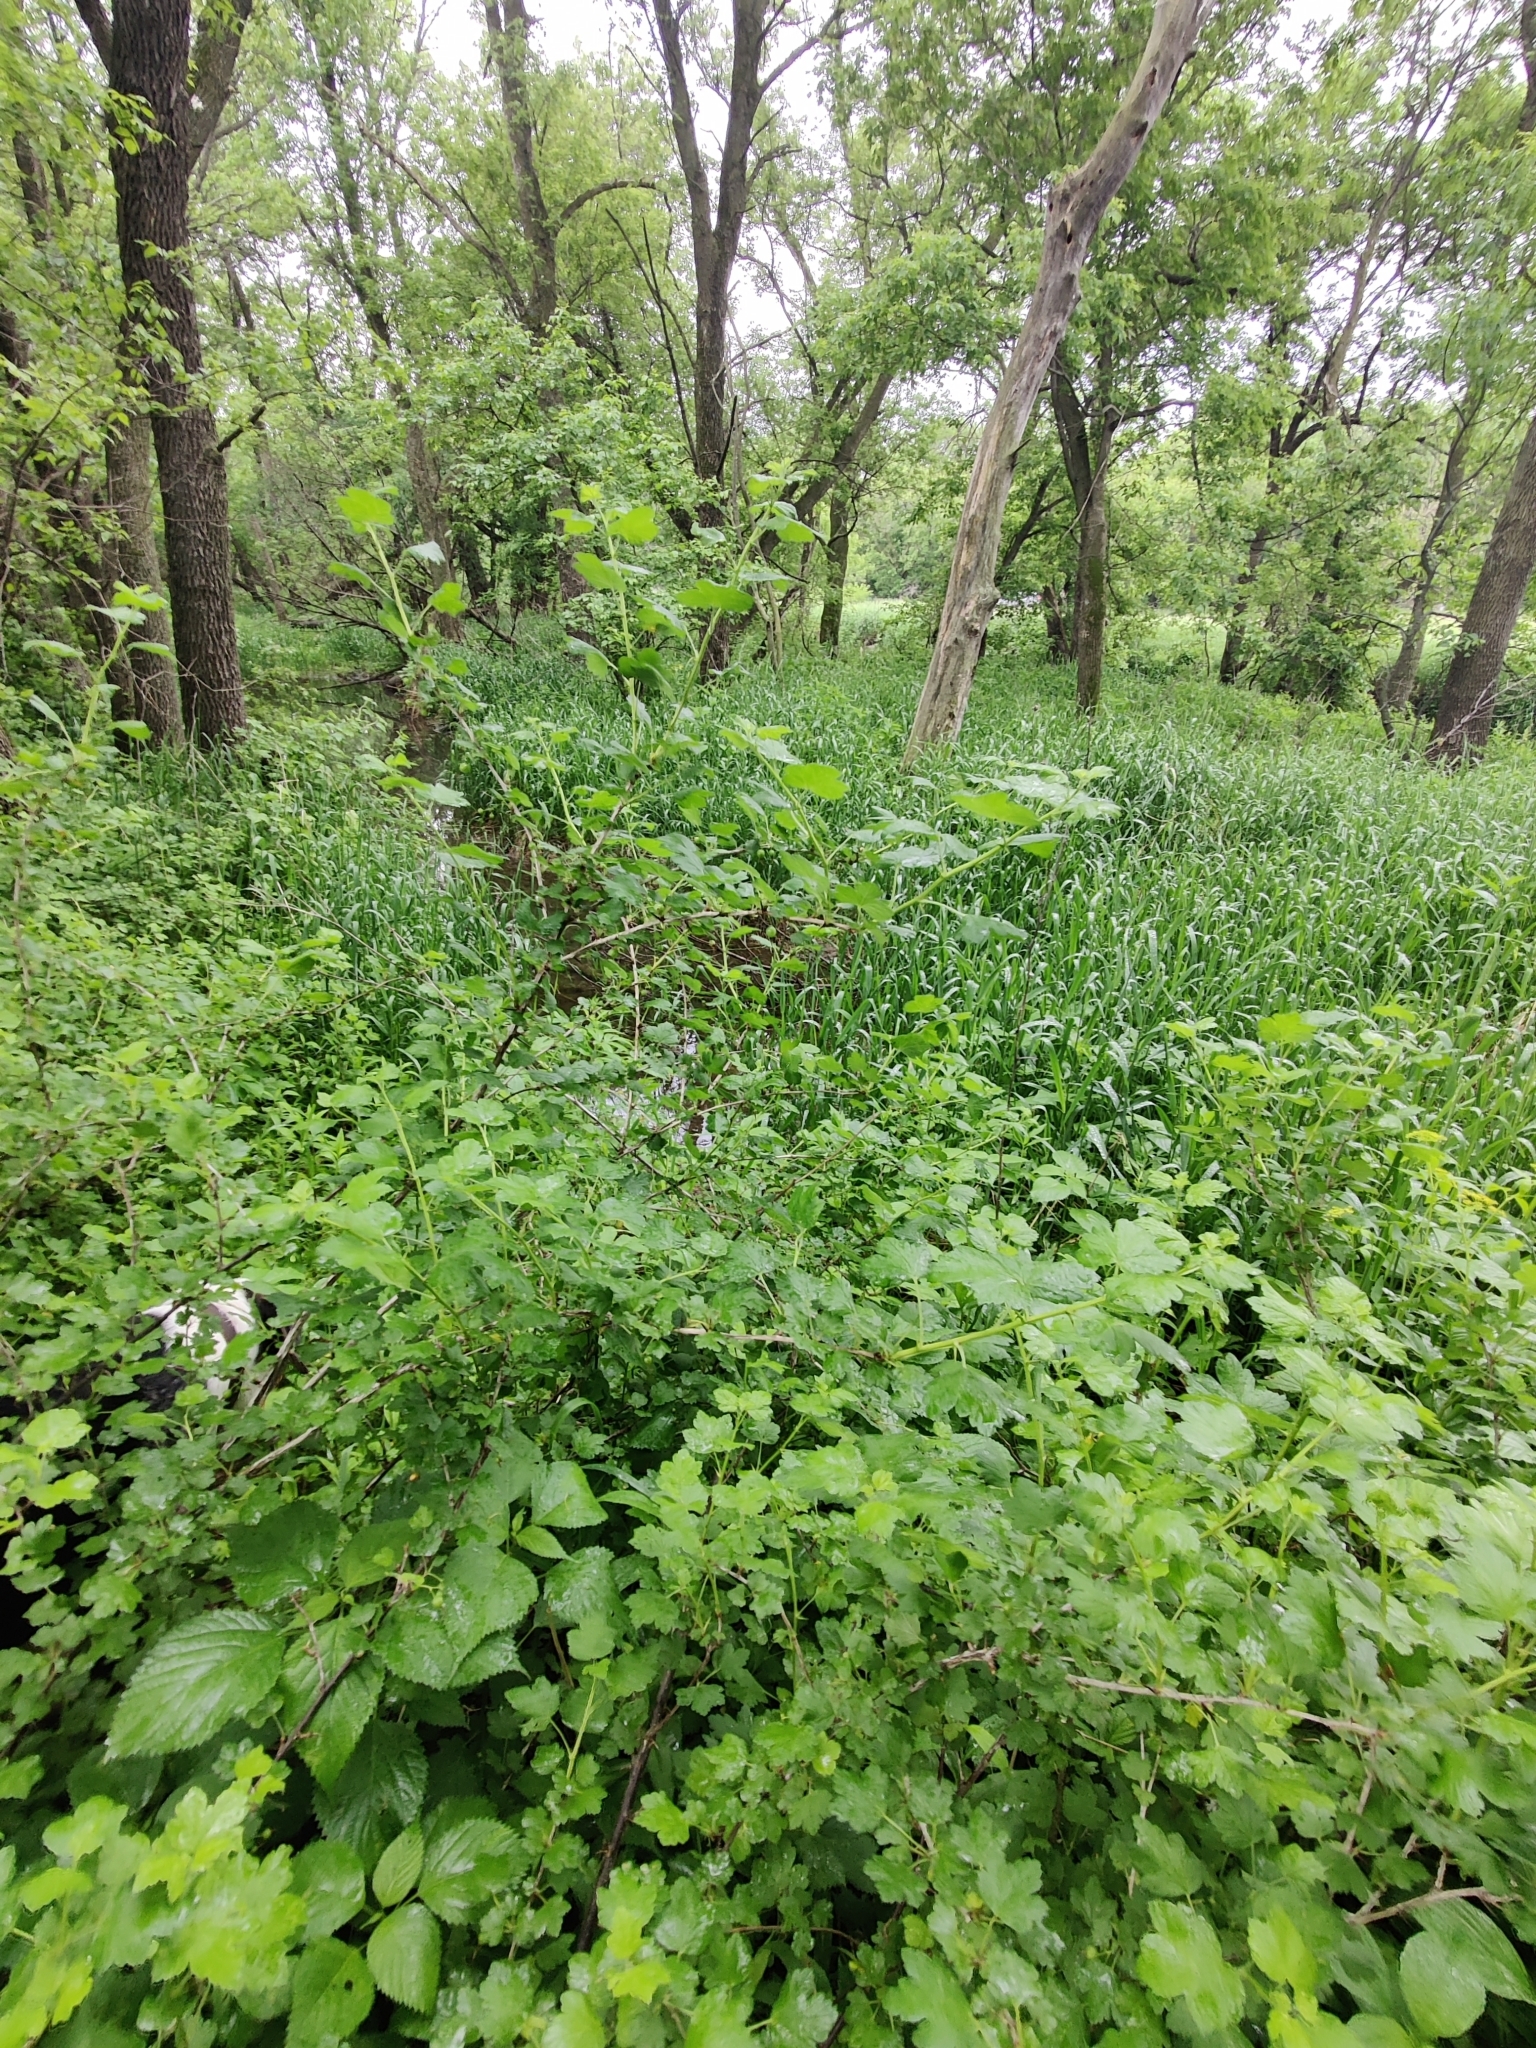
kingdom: Plantae
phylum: Tracheophyta
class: Magnoliopsida
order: Saxifragales
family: Grossulariaceae
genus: Ribes
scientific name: Ribes missouriense
